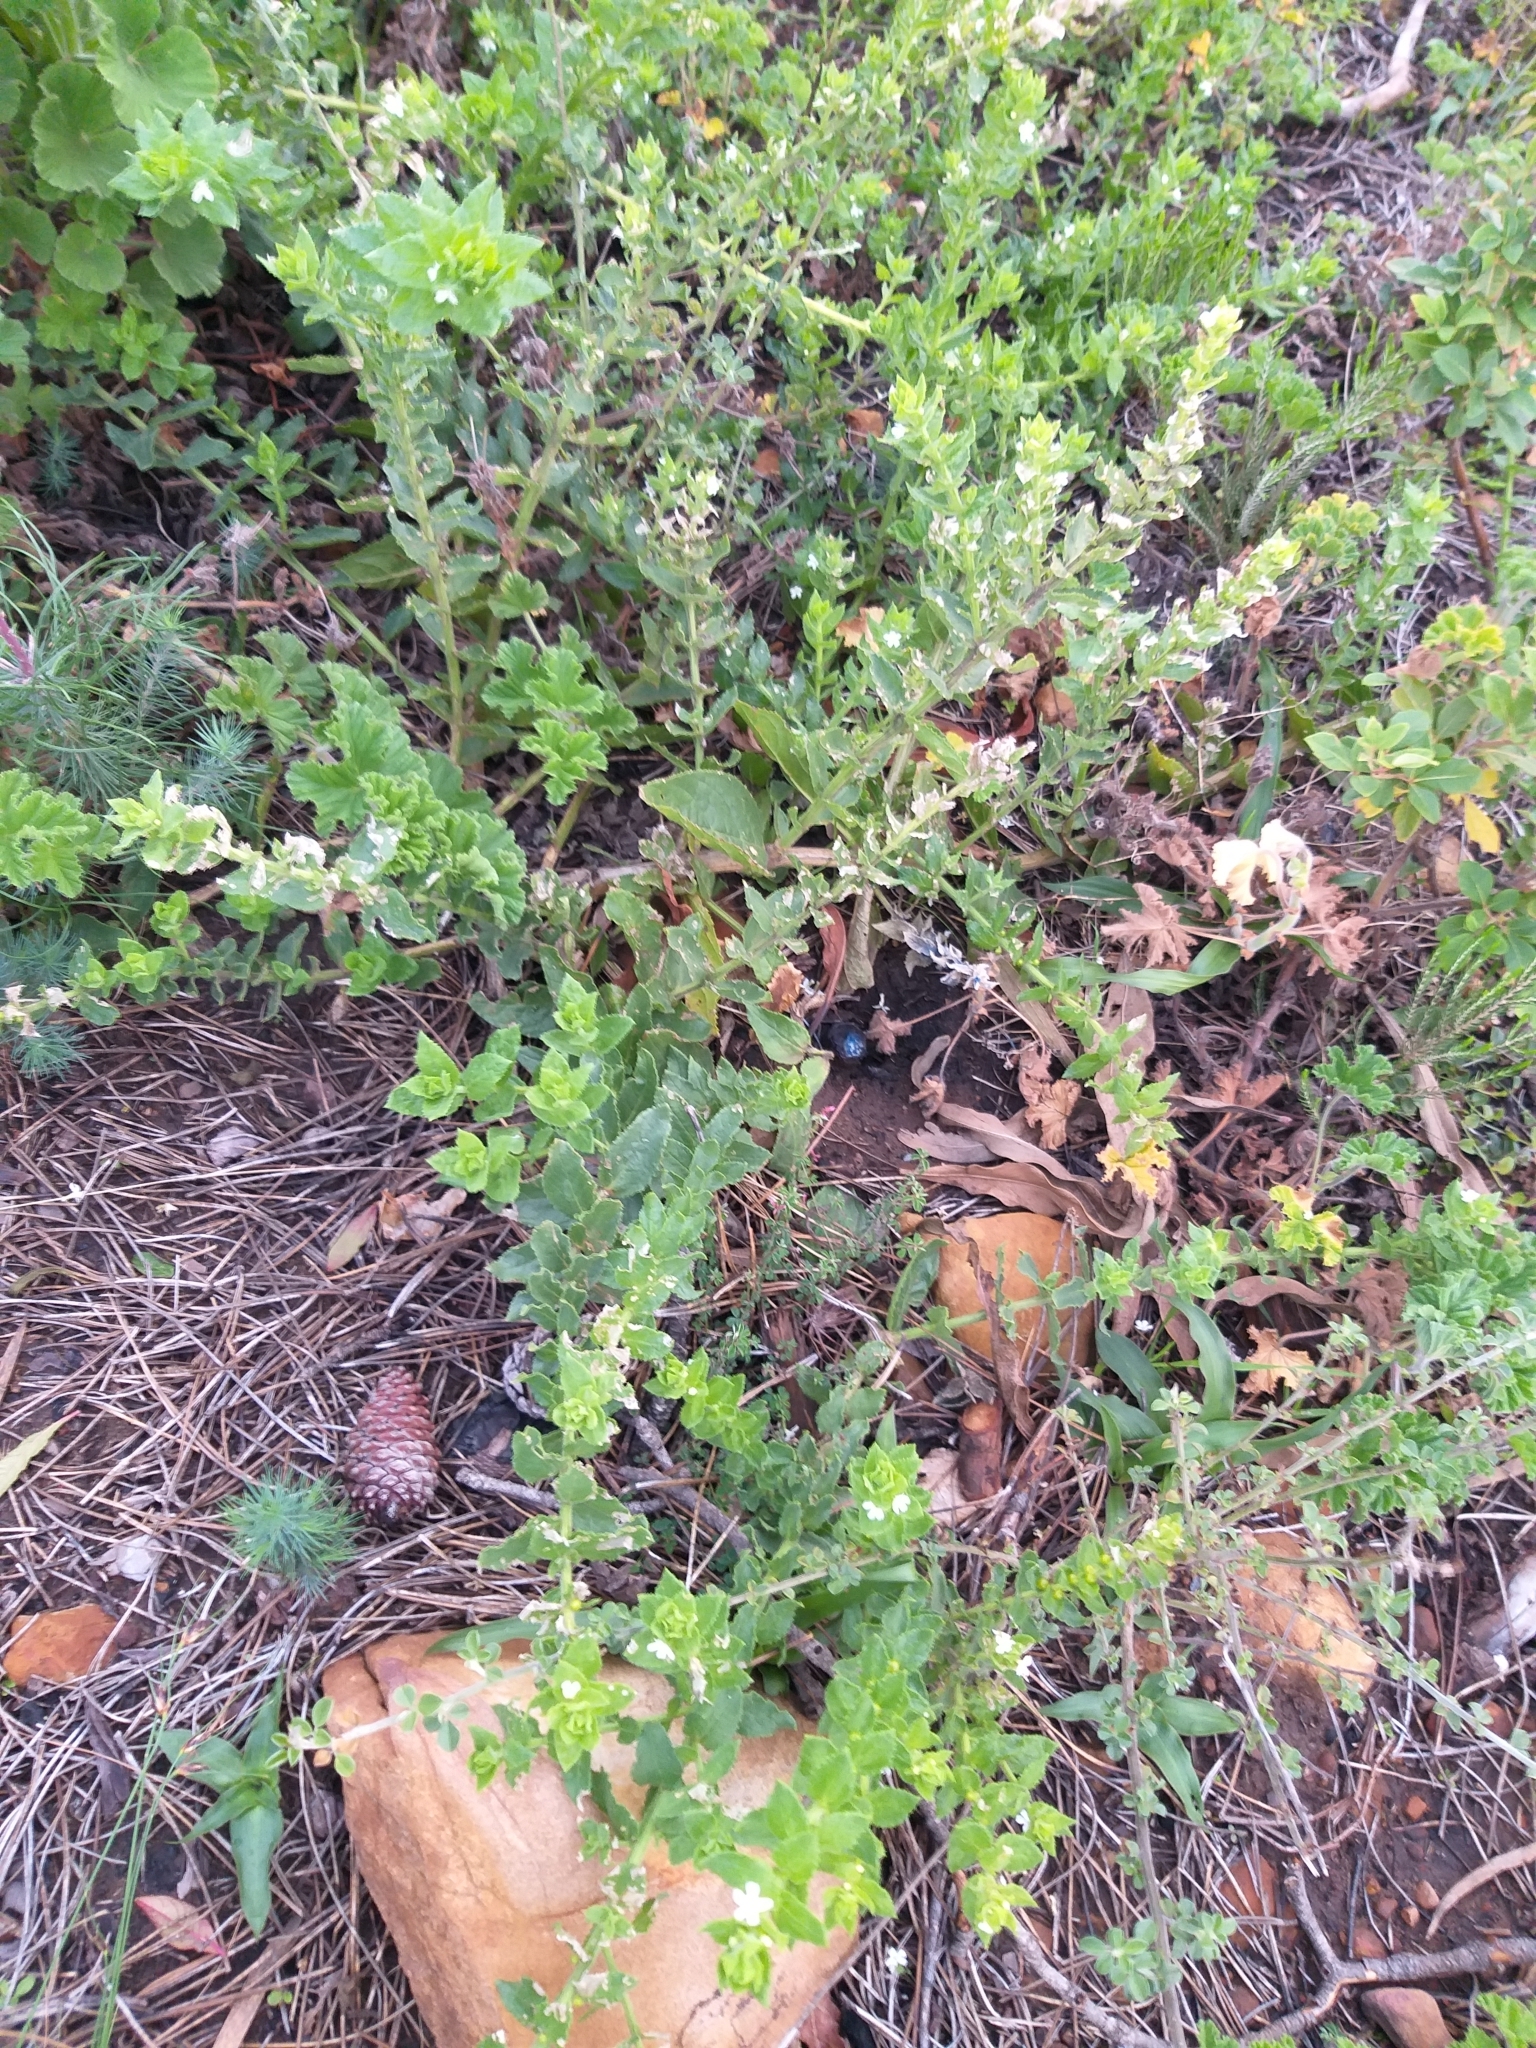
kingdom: Plantae
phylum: Tracheophyta
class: Magnoliopsida
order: Lamiales
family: Scrophulariaceae
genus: Oftia
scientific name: Oftia africana
